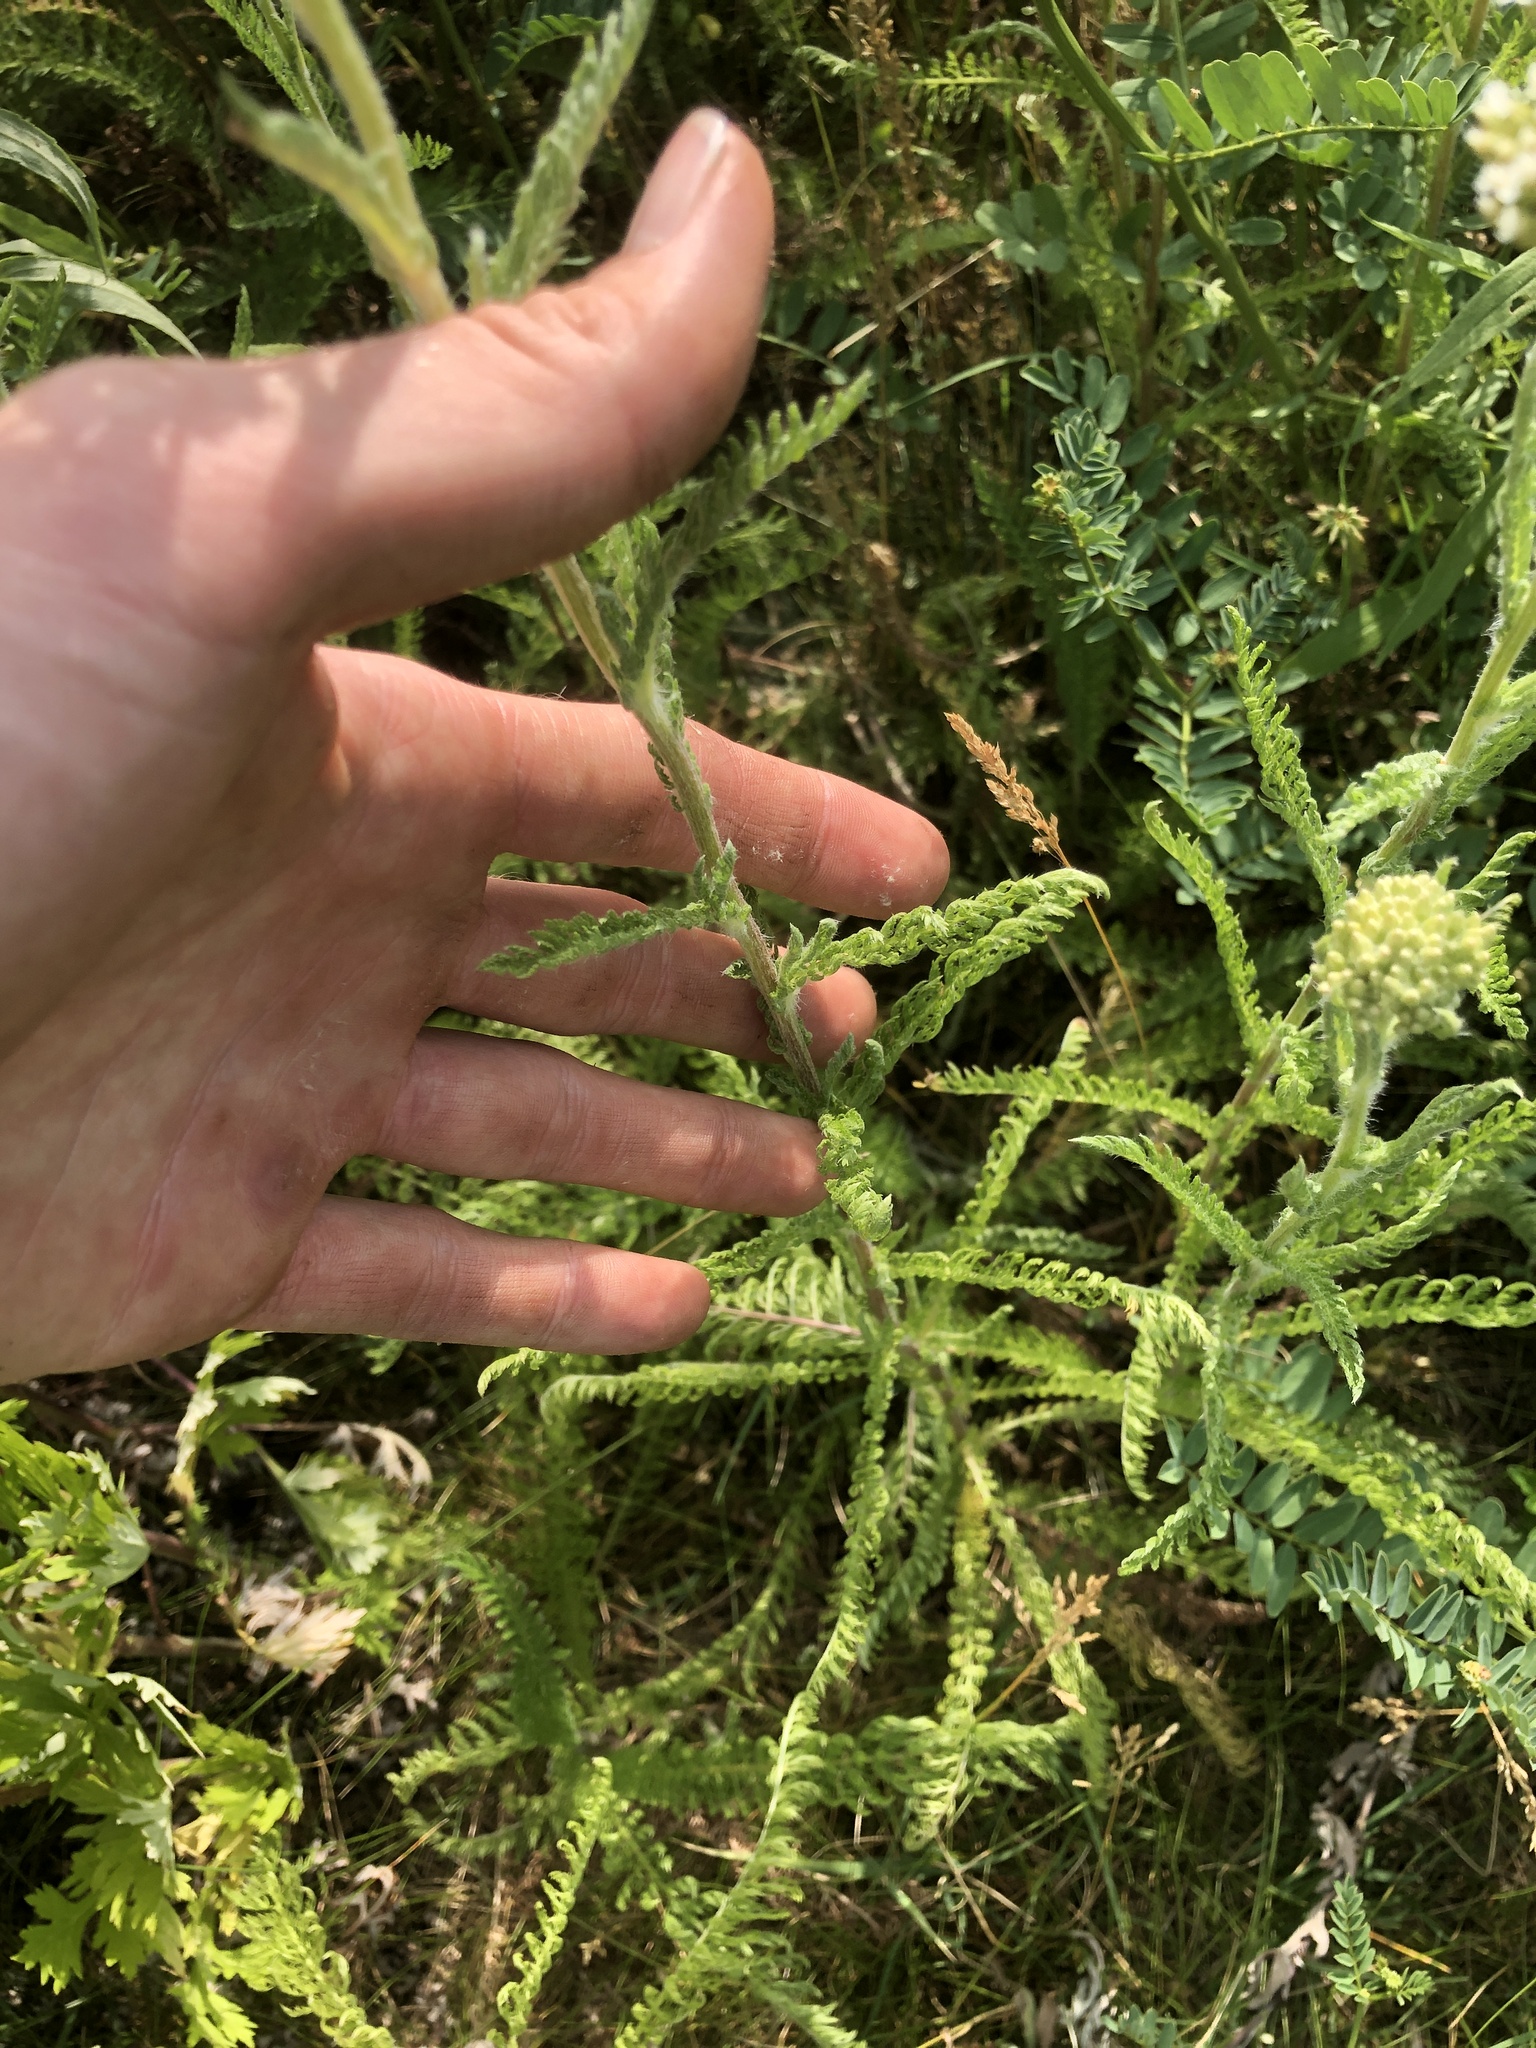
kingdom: Plantae
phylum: Tracheophyta
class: Magnoliopsida
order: Asterales
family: Asteraceae
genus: Achillea
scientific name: Achillea millefolium
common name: Yarrow
